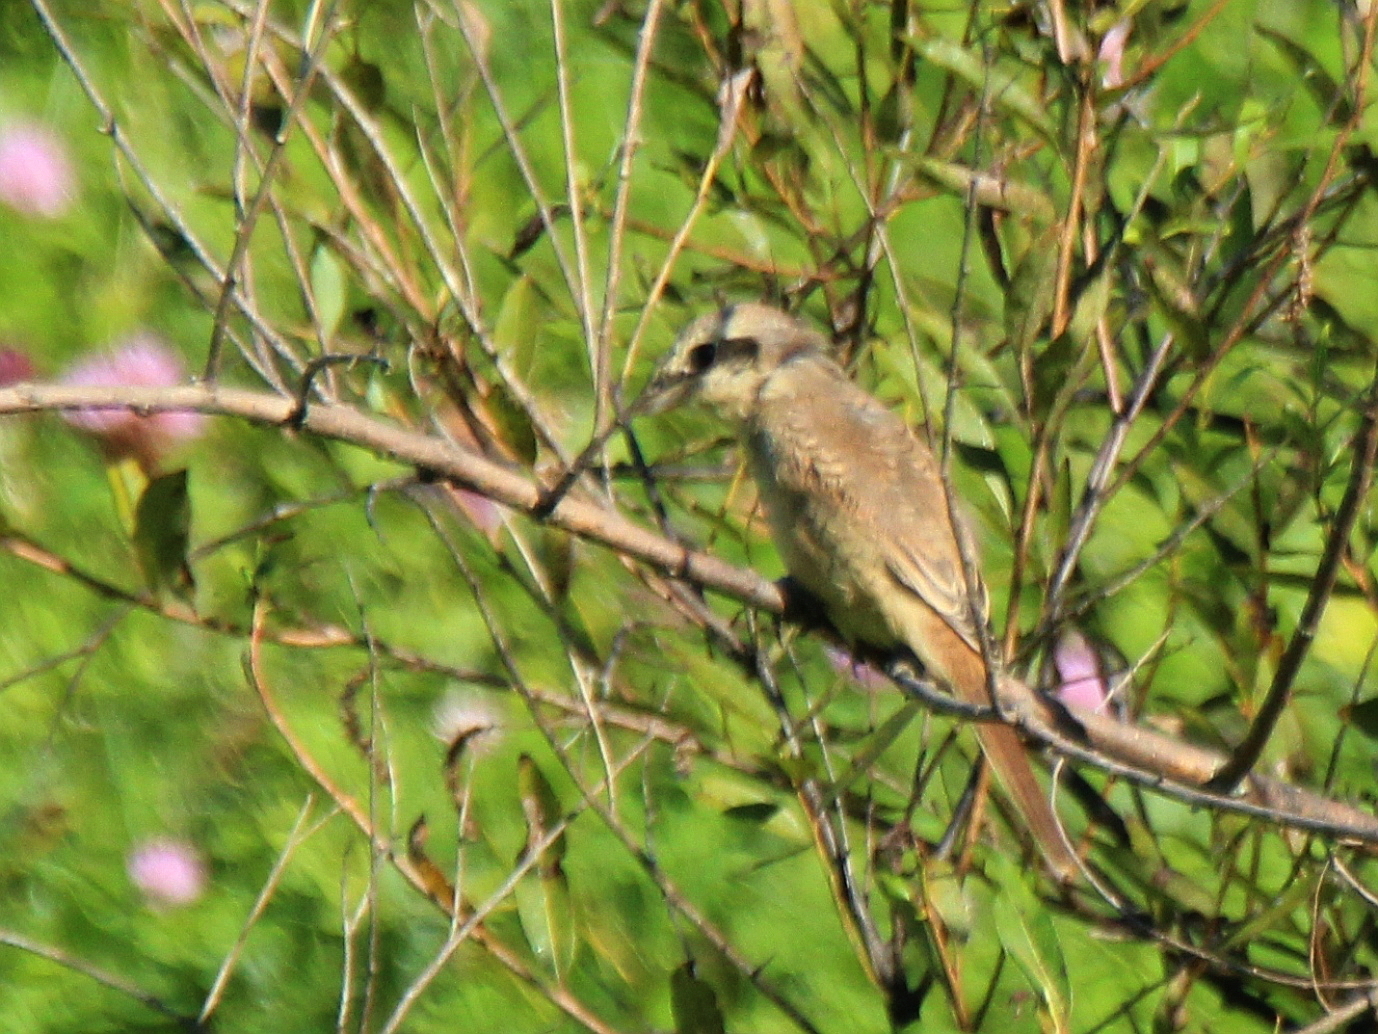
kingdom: Animalia
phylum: Chordata
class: Aves
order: Passeriformes
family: Laniidae
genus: Lanius
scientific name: Lanius cristatus
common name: Brown shrike
